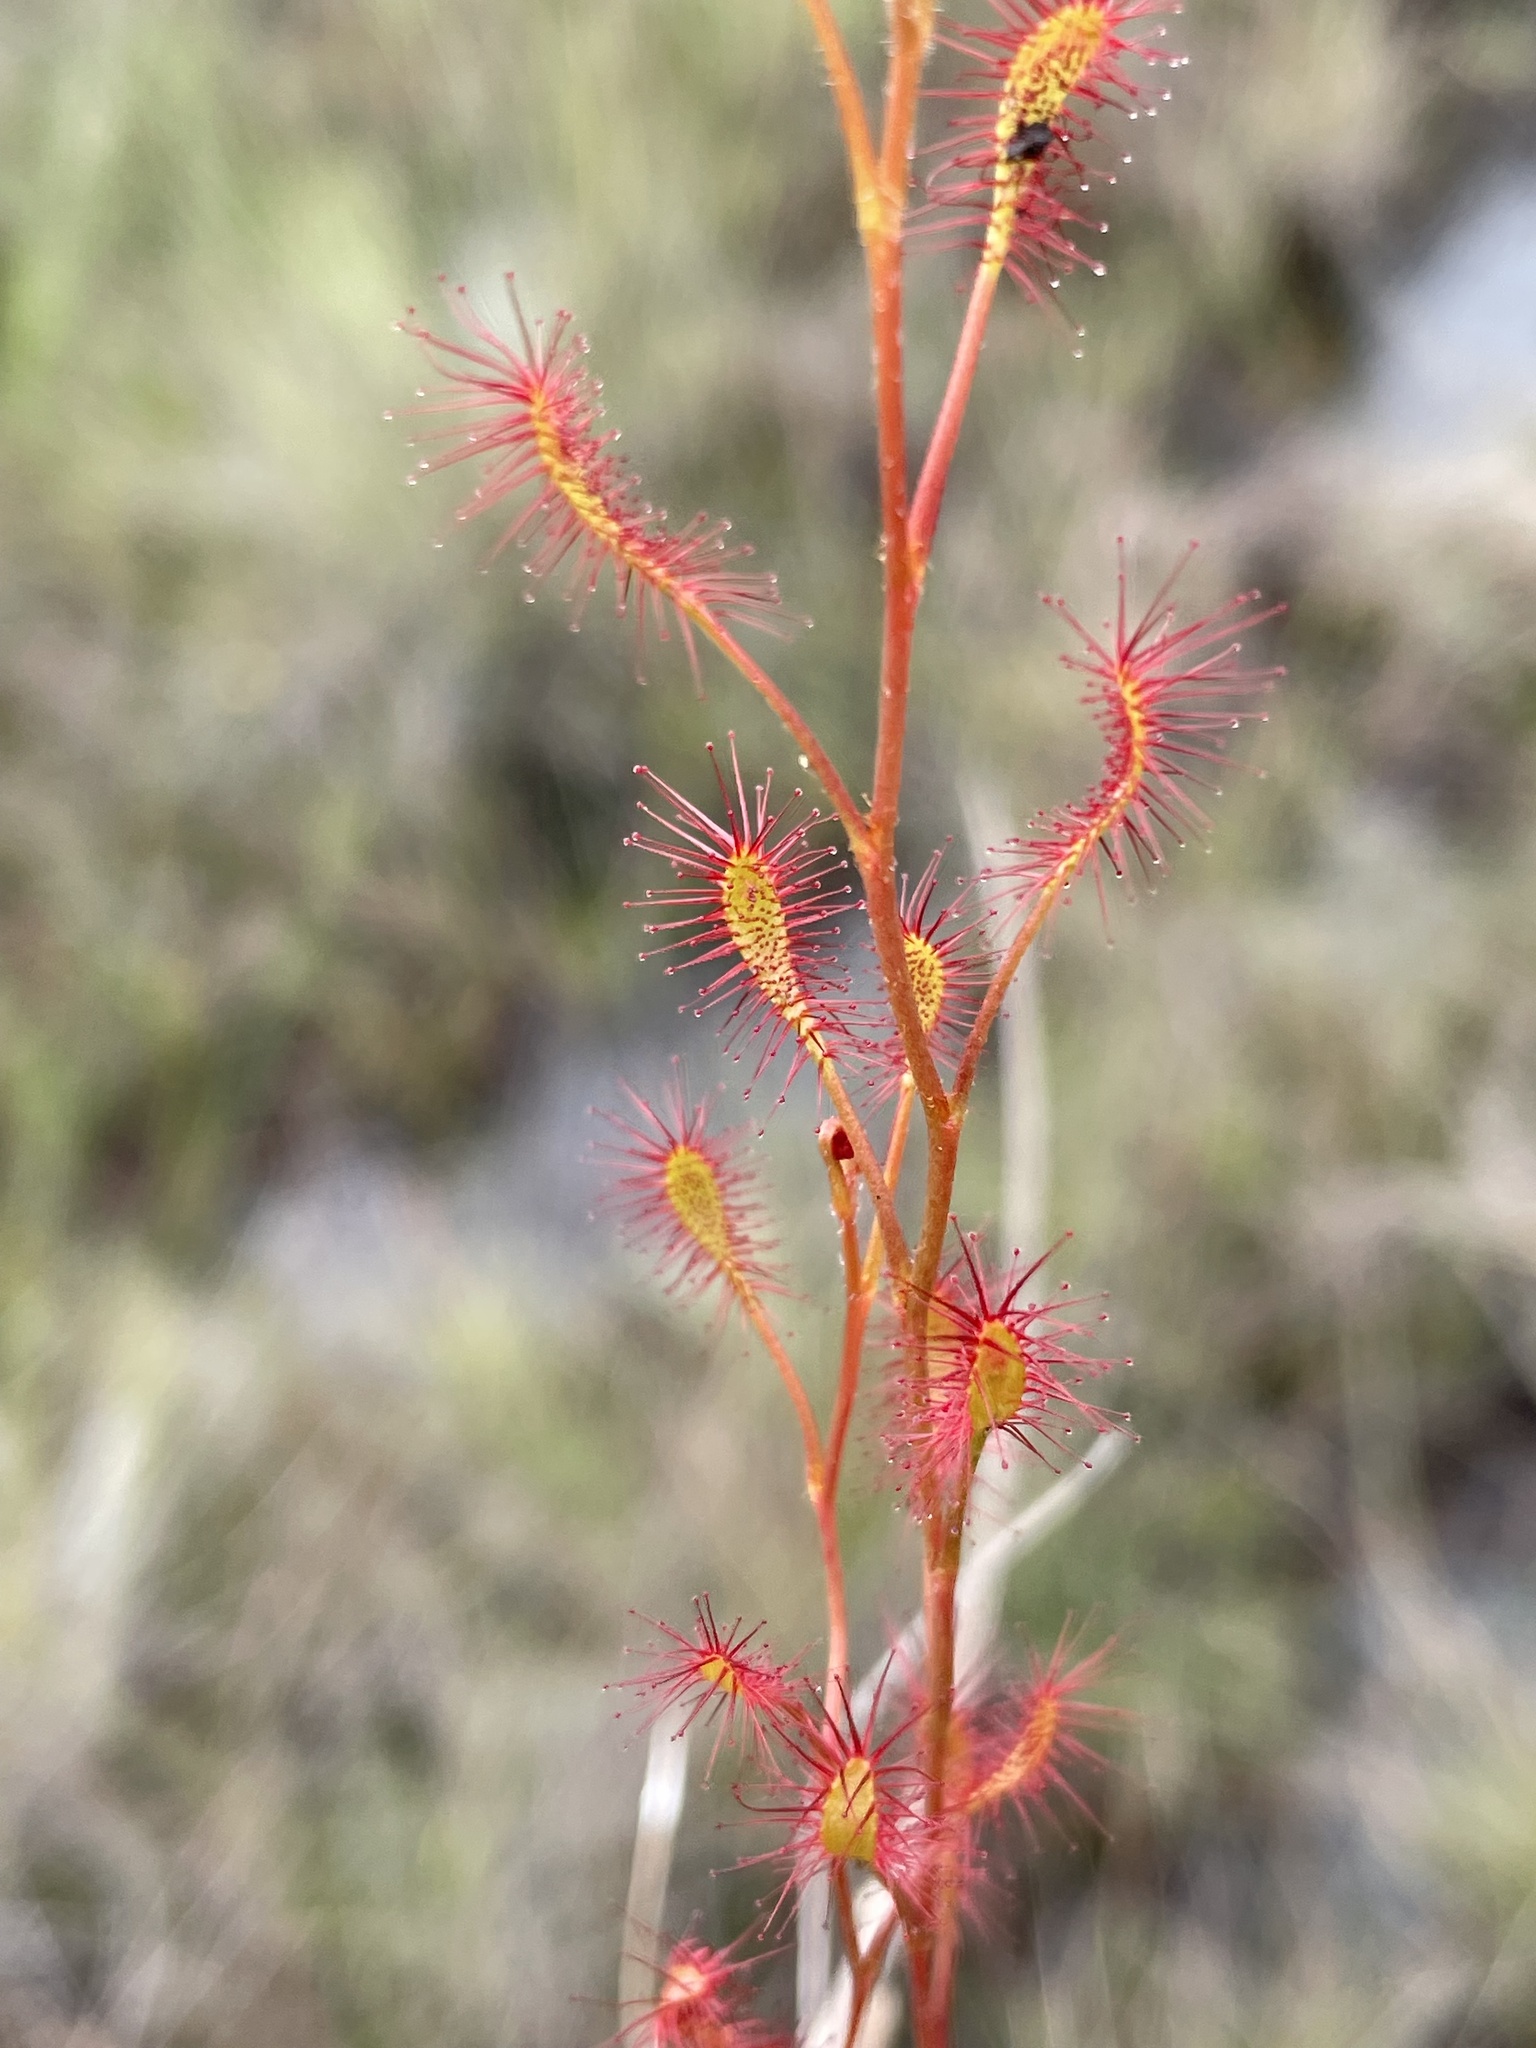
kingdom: Plantae
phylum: Tracheophyta
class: Magnoliopsida
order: Caryophyllales
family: Droseraceae
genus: Drosera
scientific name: Drosera affinis
